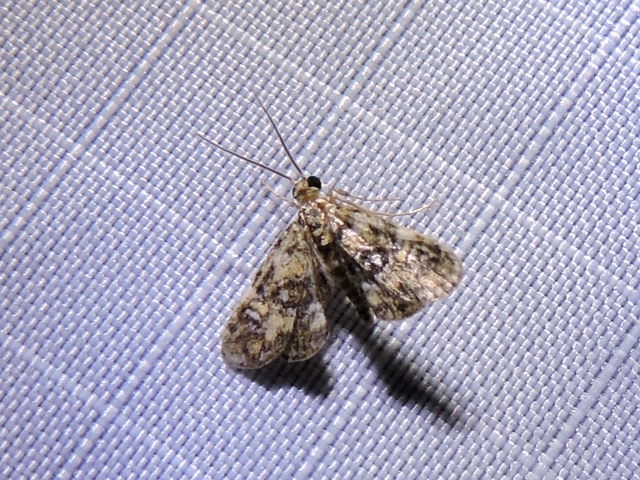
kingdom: Animalia
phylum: Arthropoda
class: Insecta
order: Lepidoptera
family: Crambidae
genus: Elophila
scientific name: Elophila obliteralis
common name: Waterlily leafcutter moth
